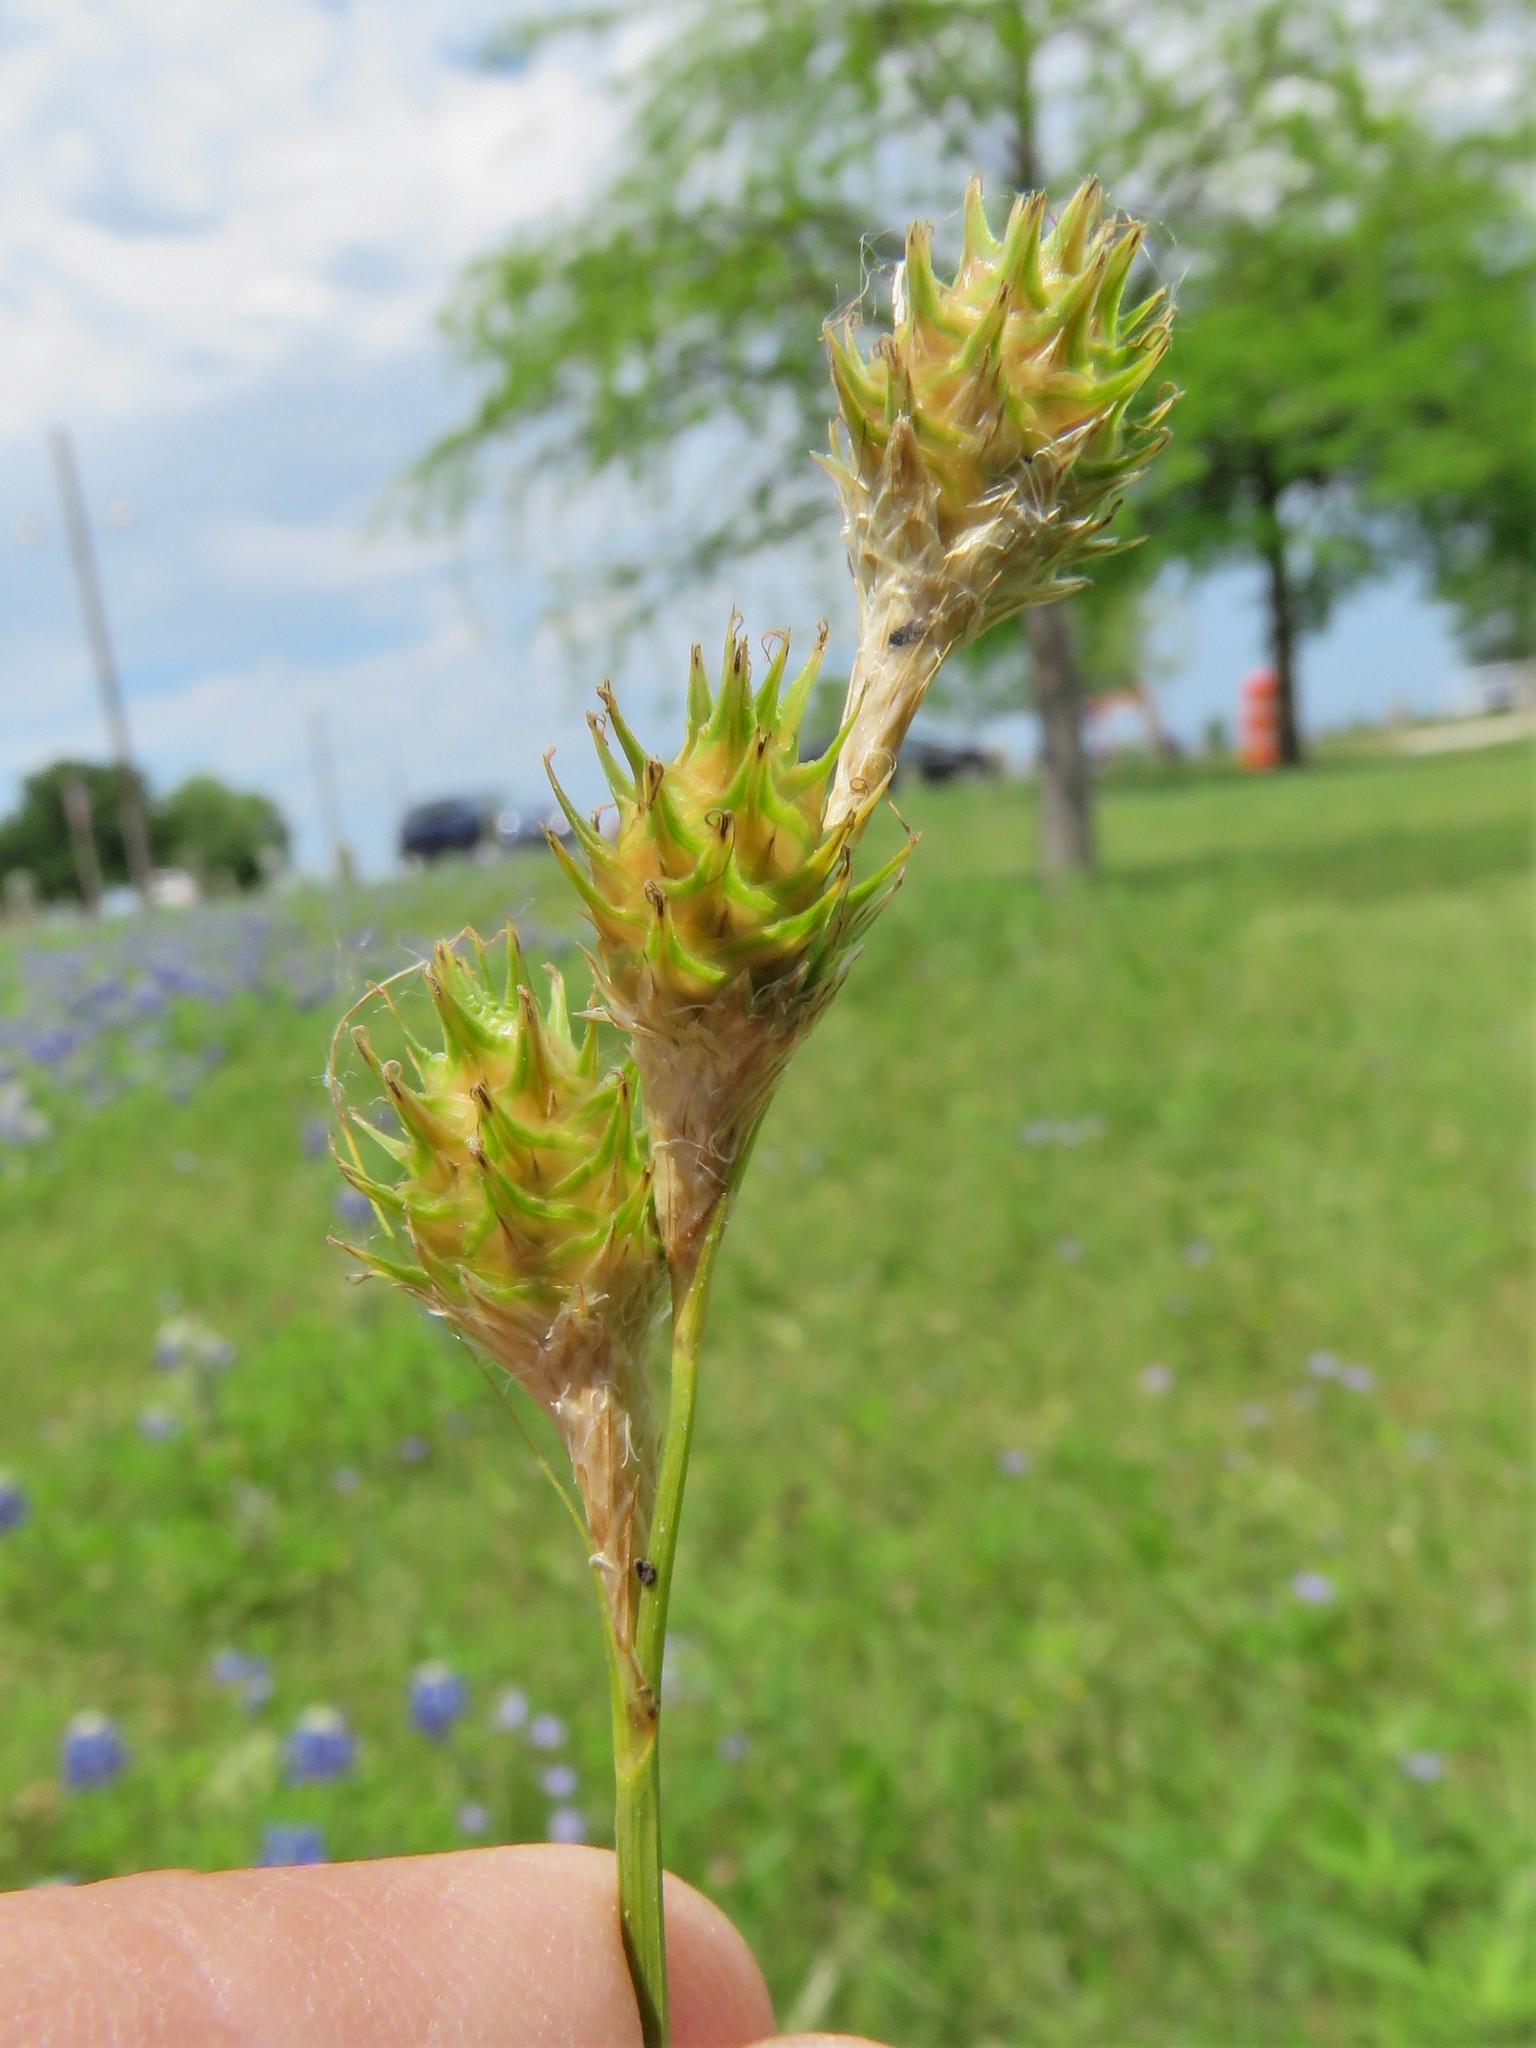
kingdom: Plantae
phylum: Tracheophyta
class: Liliopsida
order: Poales
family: Cyperaceae
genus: Carex
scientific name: Carex tetrastachya
